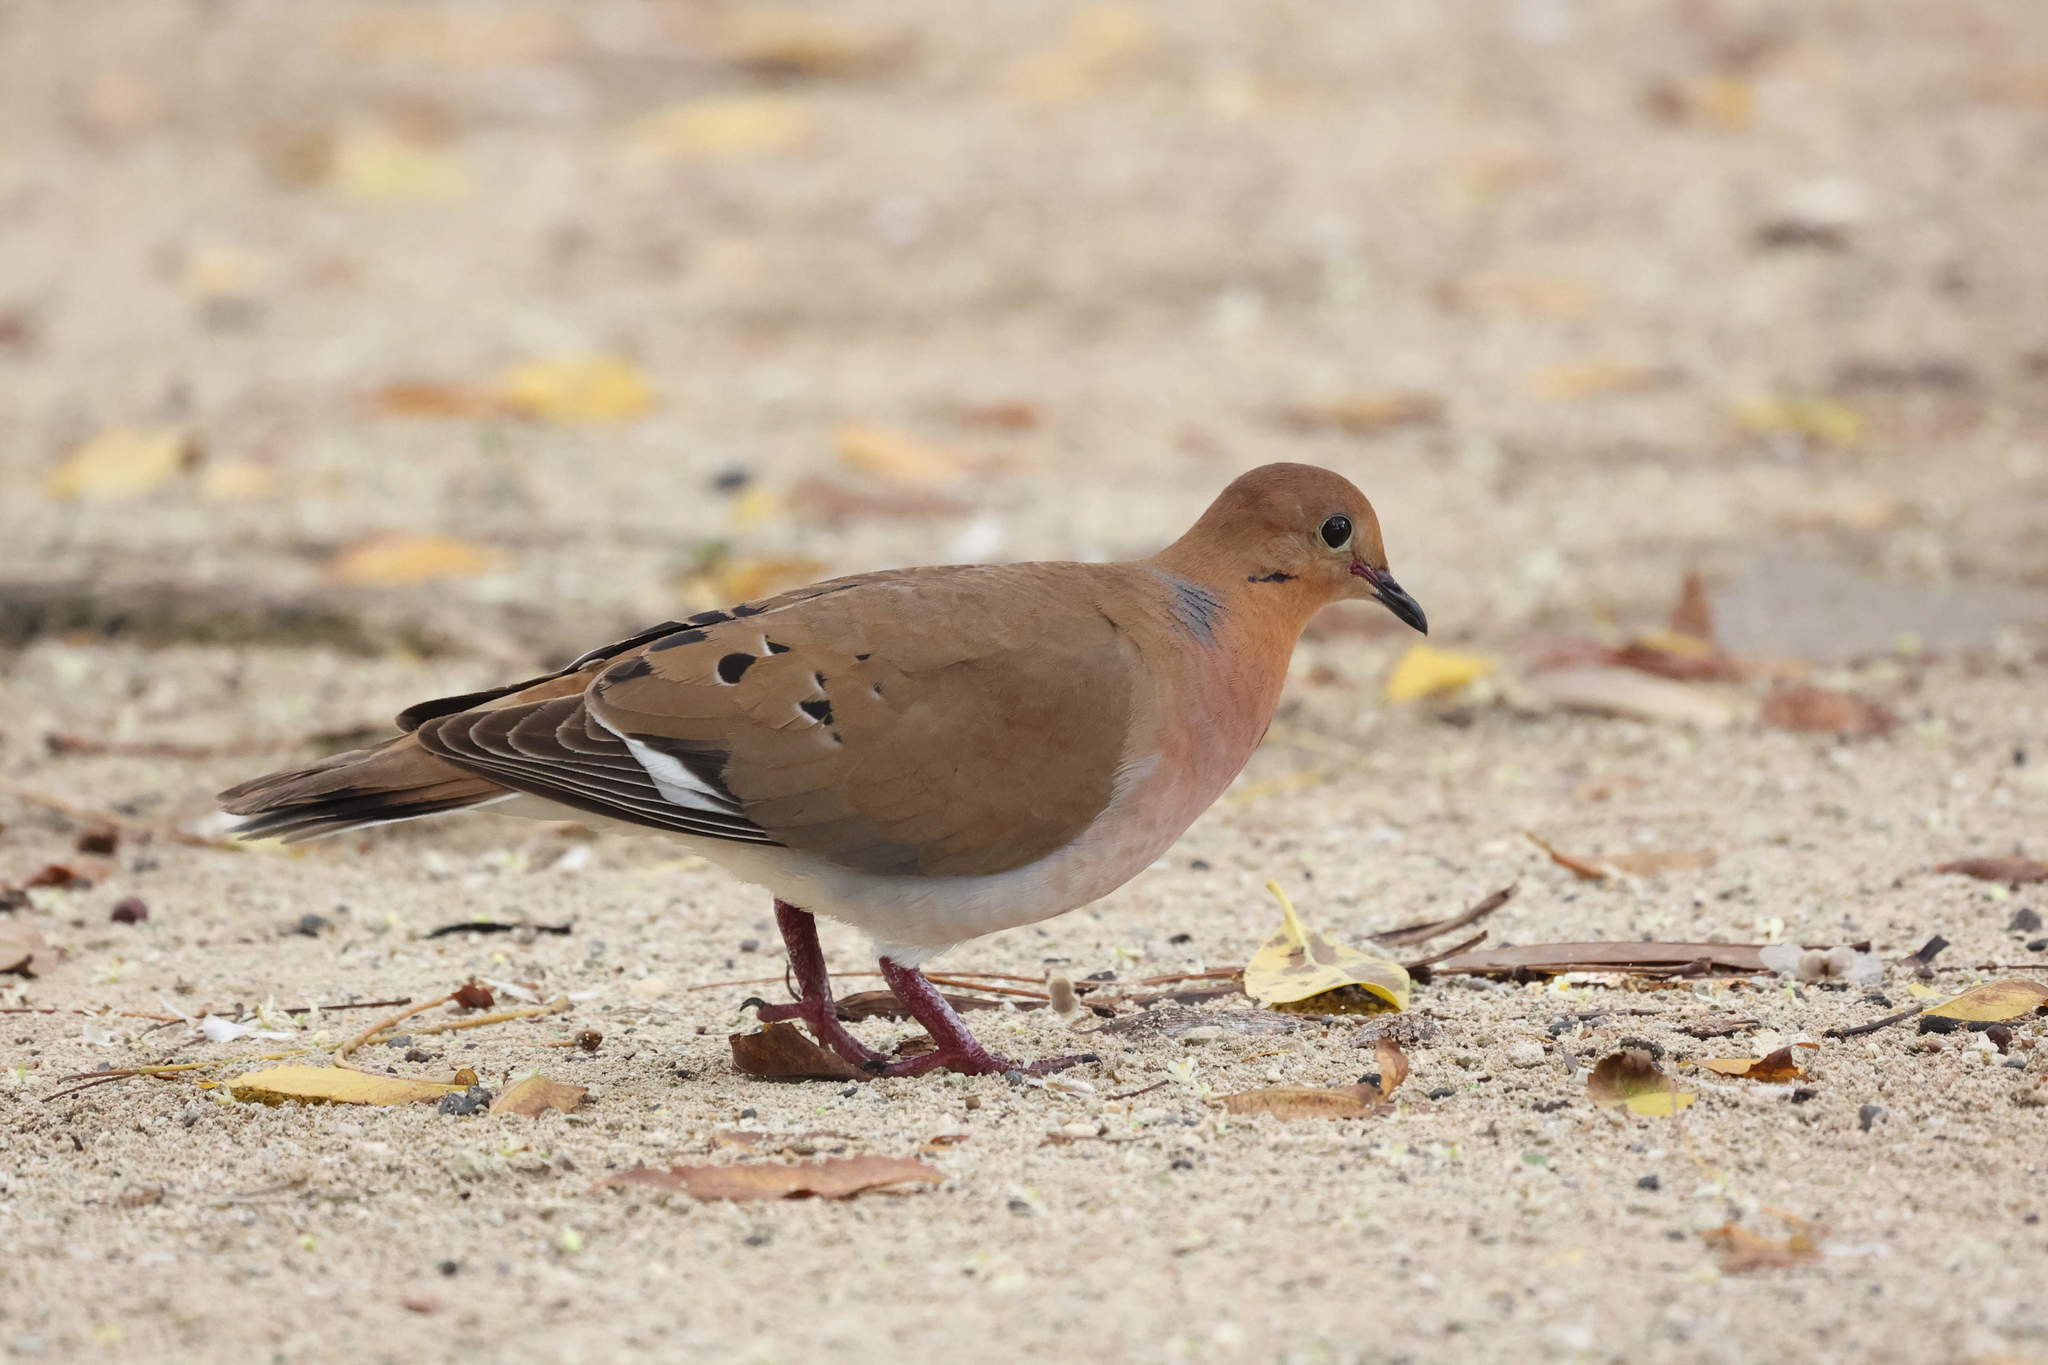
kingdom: Animalia
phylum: Chordata
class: Aves
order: Columbiformes
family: Columbidae
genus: Zenaida
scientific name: Zenaida aurita
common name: Zenaida dove
